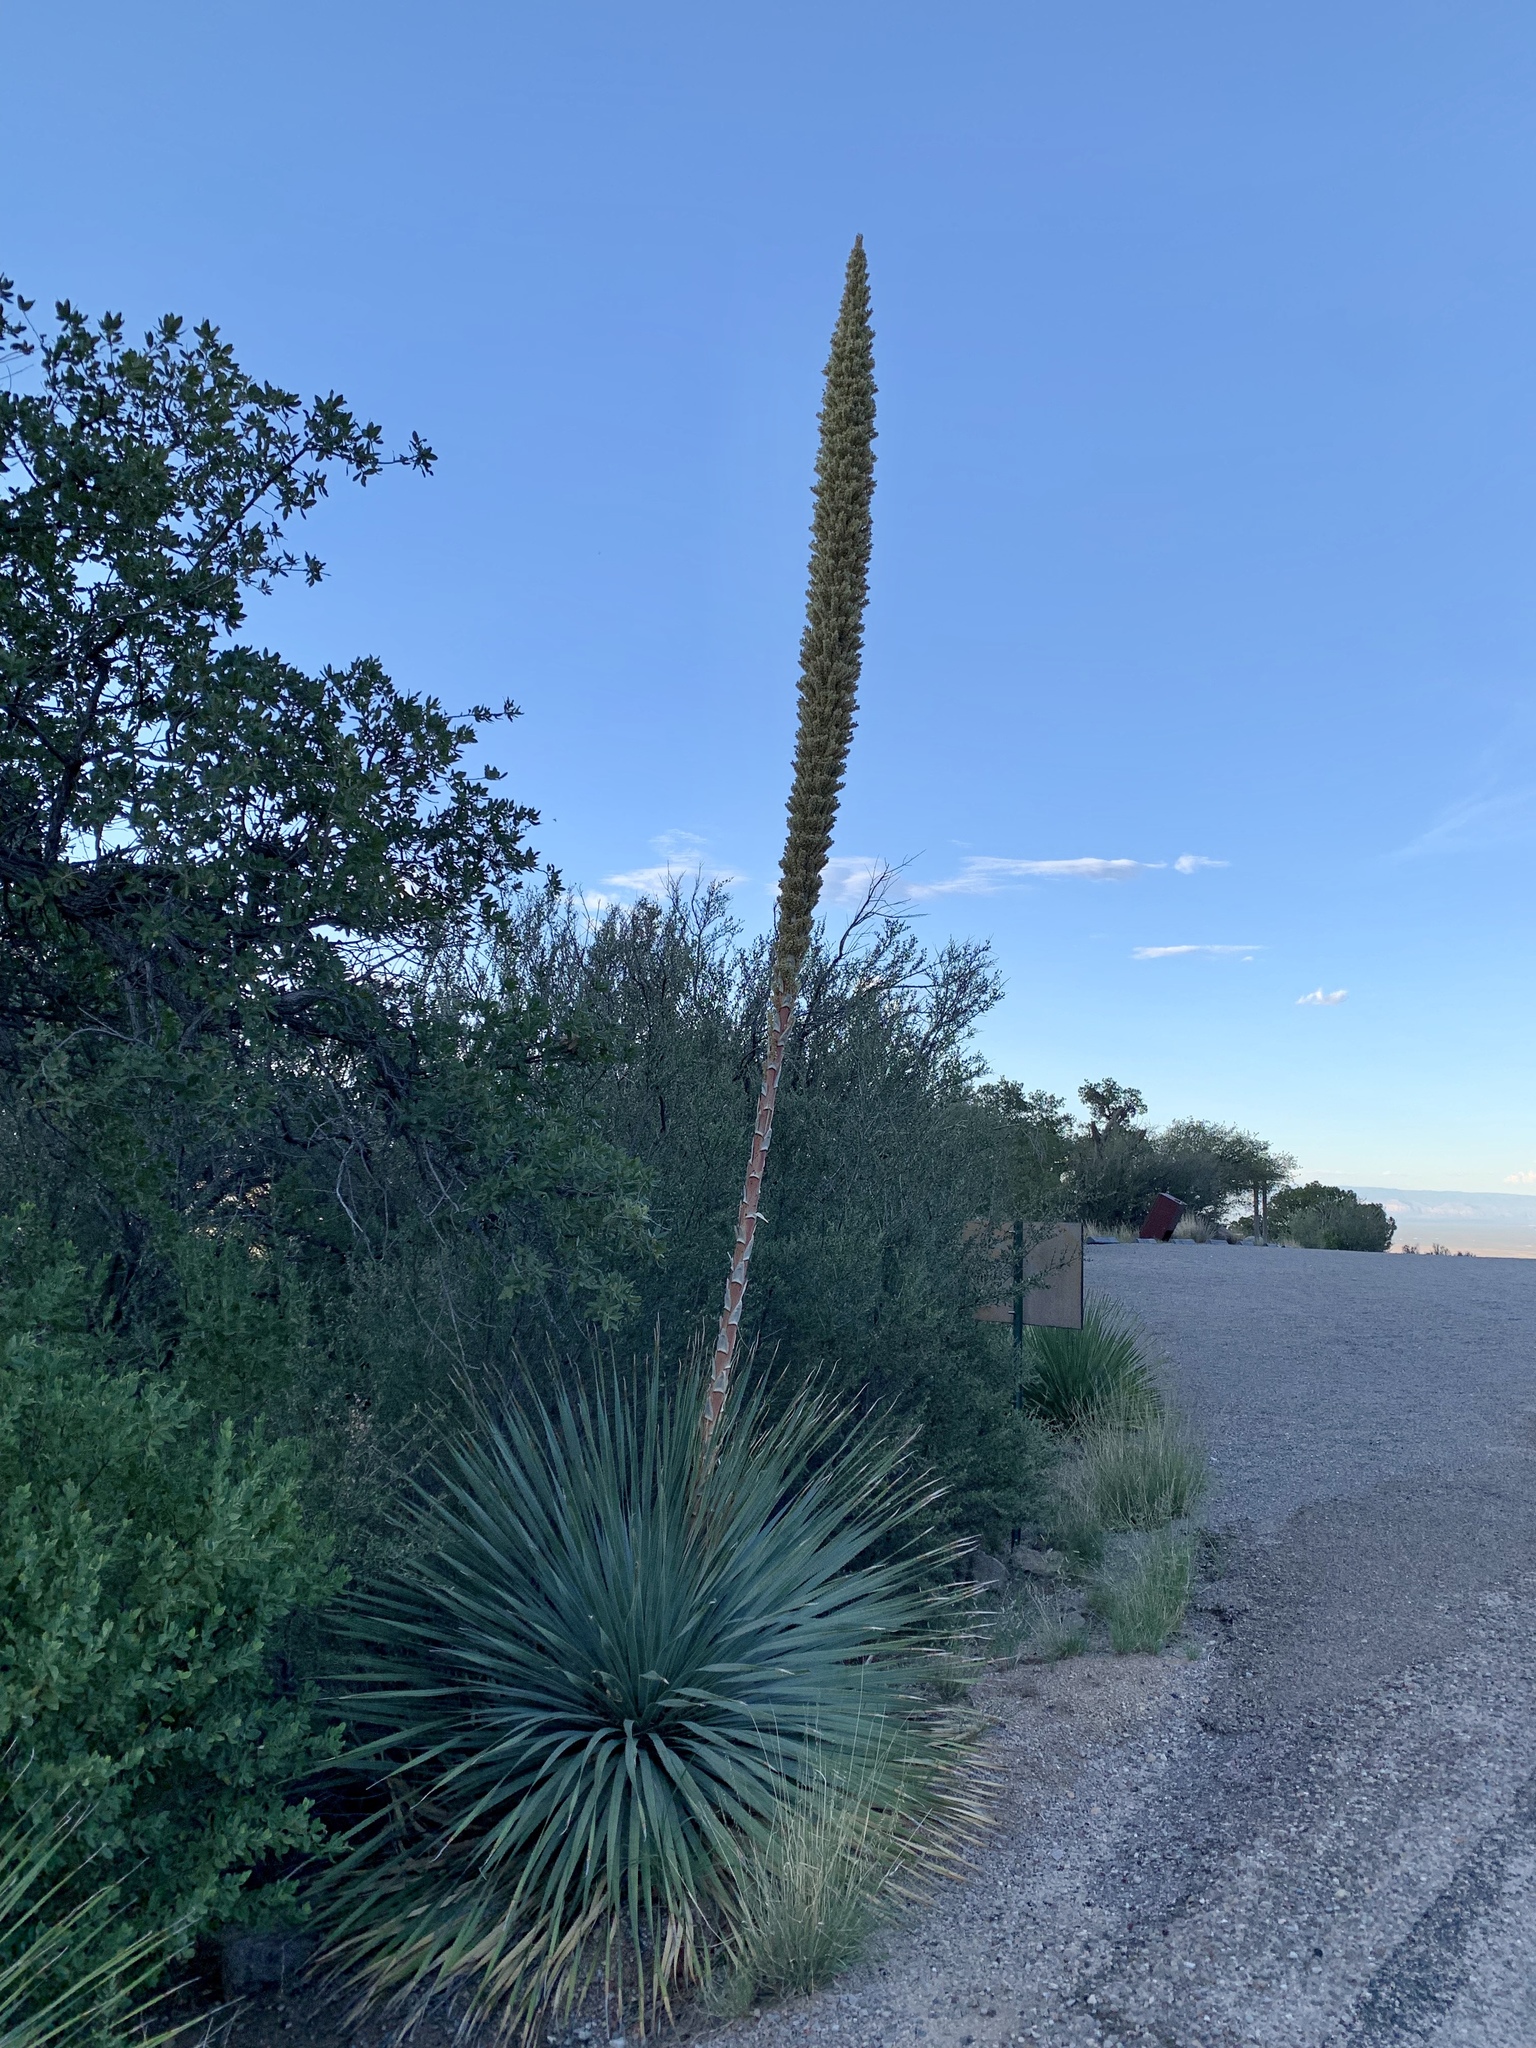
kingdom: Plantae
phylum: Tracheophyta
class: Liliopsida
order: Asparagales
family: Asparagaceae
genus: Dasylirion
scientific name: Dasylirion wheeleri
